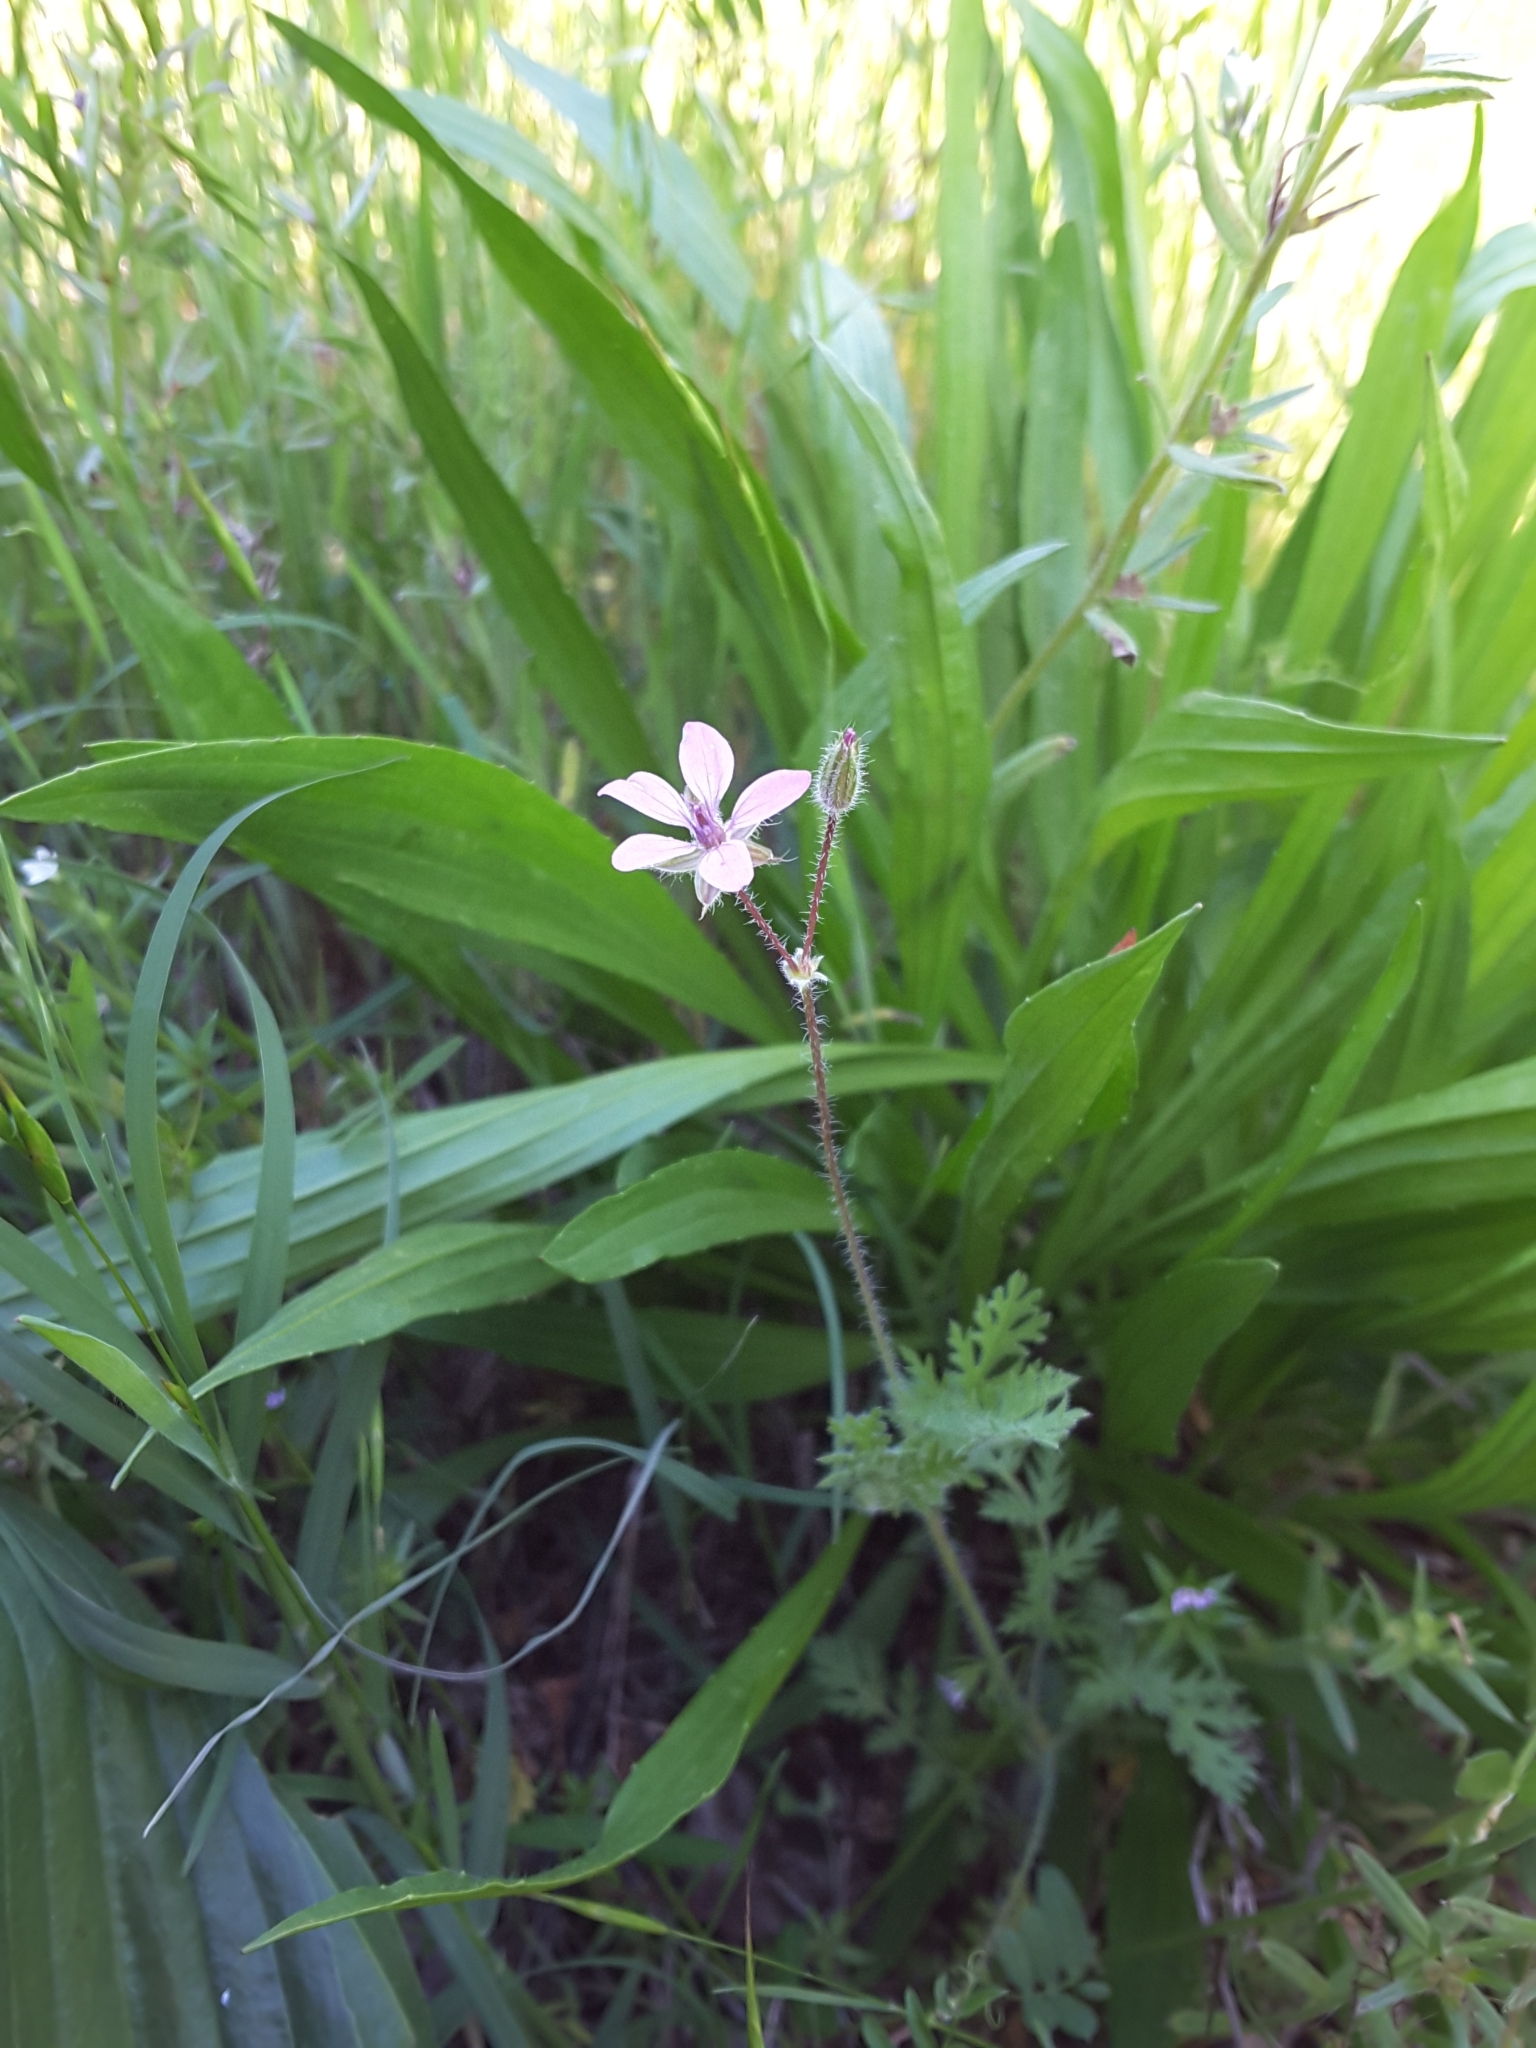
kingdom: Plantae
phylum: Tracheophyta
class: Magnoliopsida
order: Geraniales
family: Geraniaceae
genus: Erodium
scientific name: Erodium cicutarium
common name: Common stork's-bill
